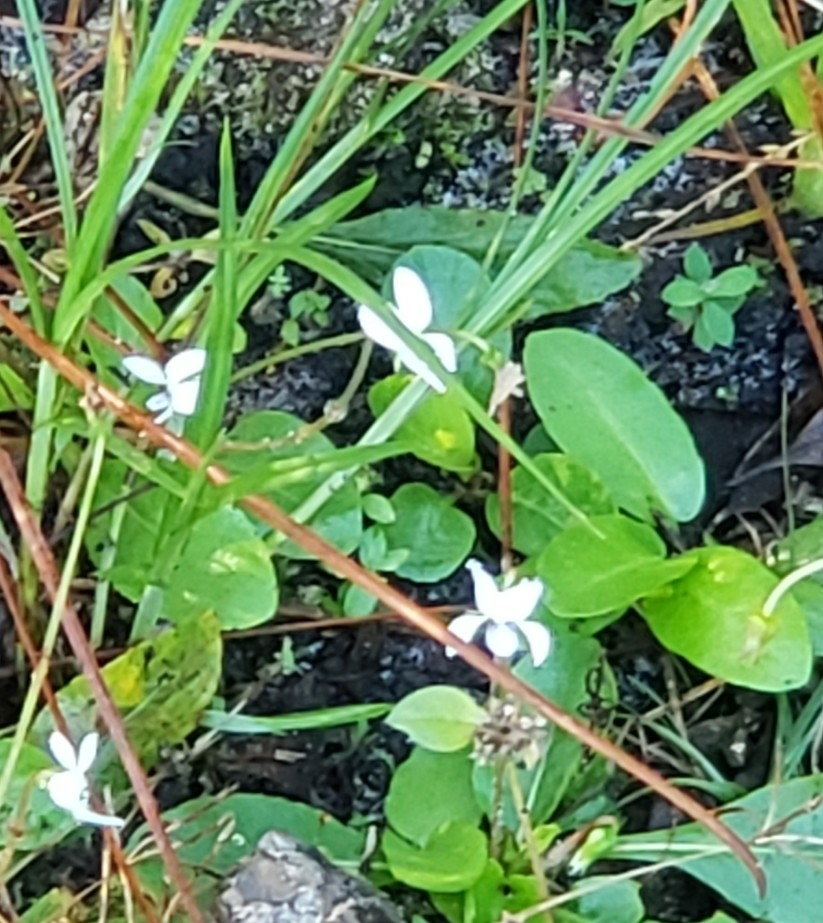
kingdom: Plantae
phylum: Tracheophyta
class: Magnoliopsida
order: Malpighiales
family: Violaceae
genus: Viola
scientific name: Viola lanceolata
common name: Bog white violet
